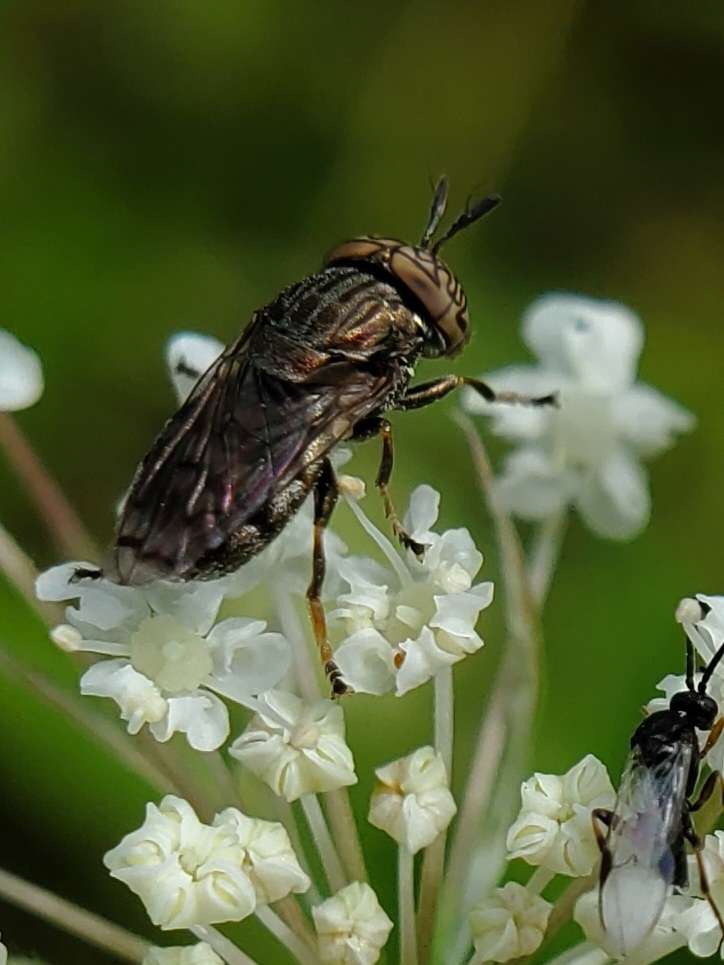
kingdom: Animalia
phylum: Arthropoda
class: Insecta
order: Diptera
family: Syrphidae
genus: Orthonevra
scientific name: Orthonevra nitida
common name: Wavy mucksucker
